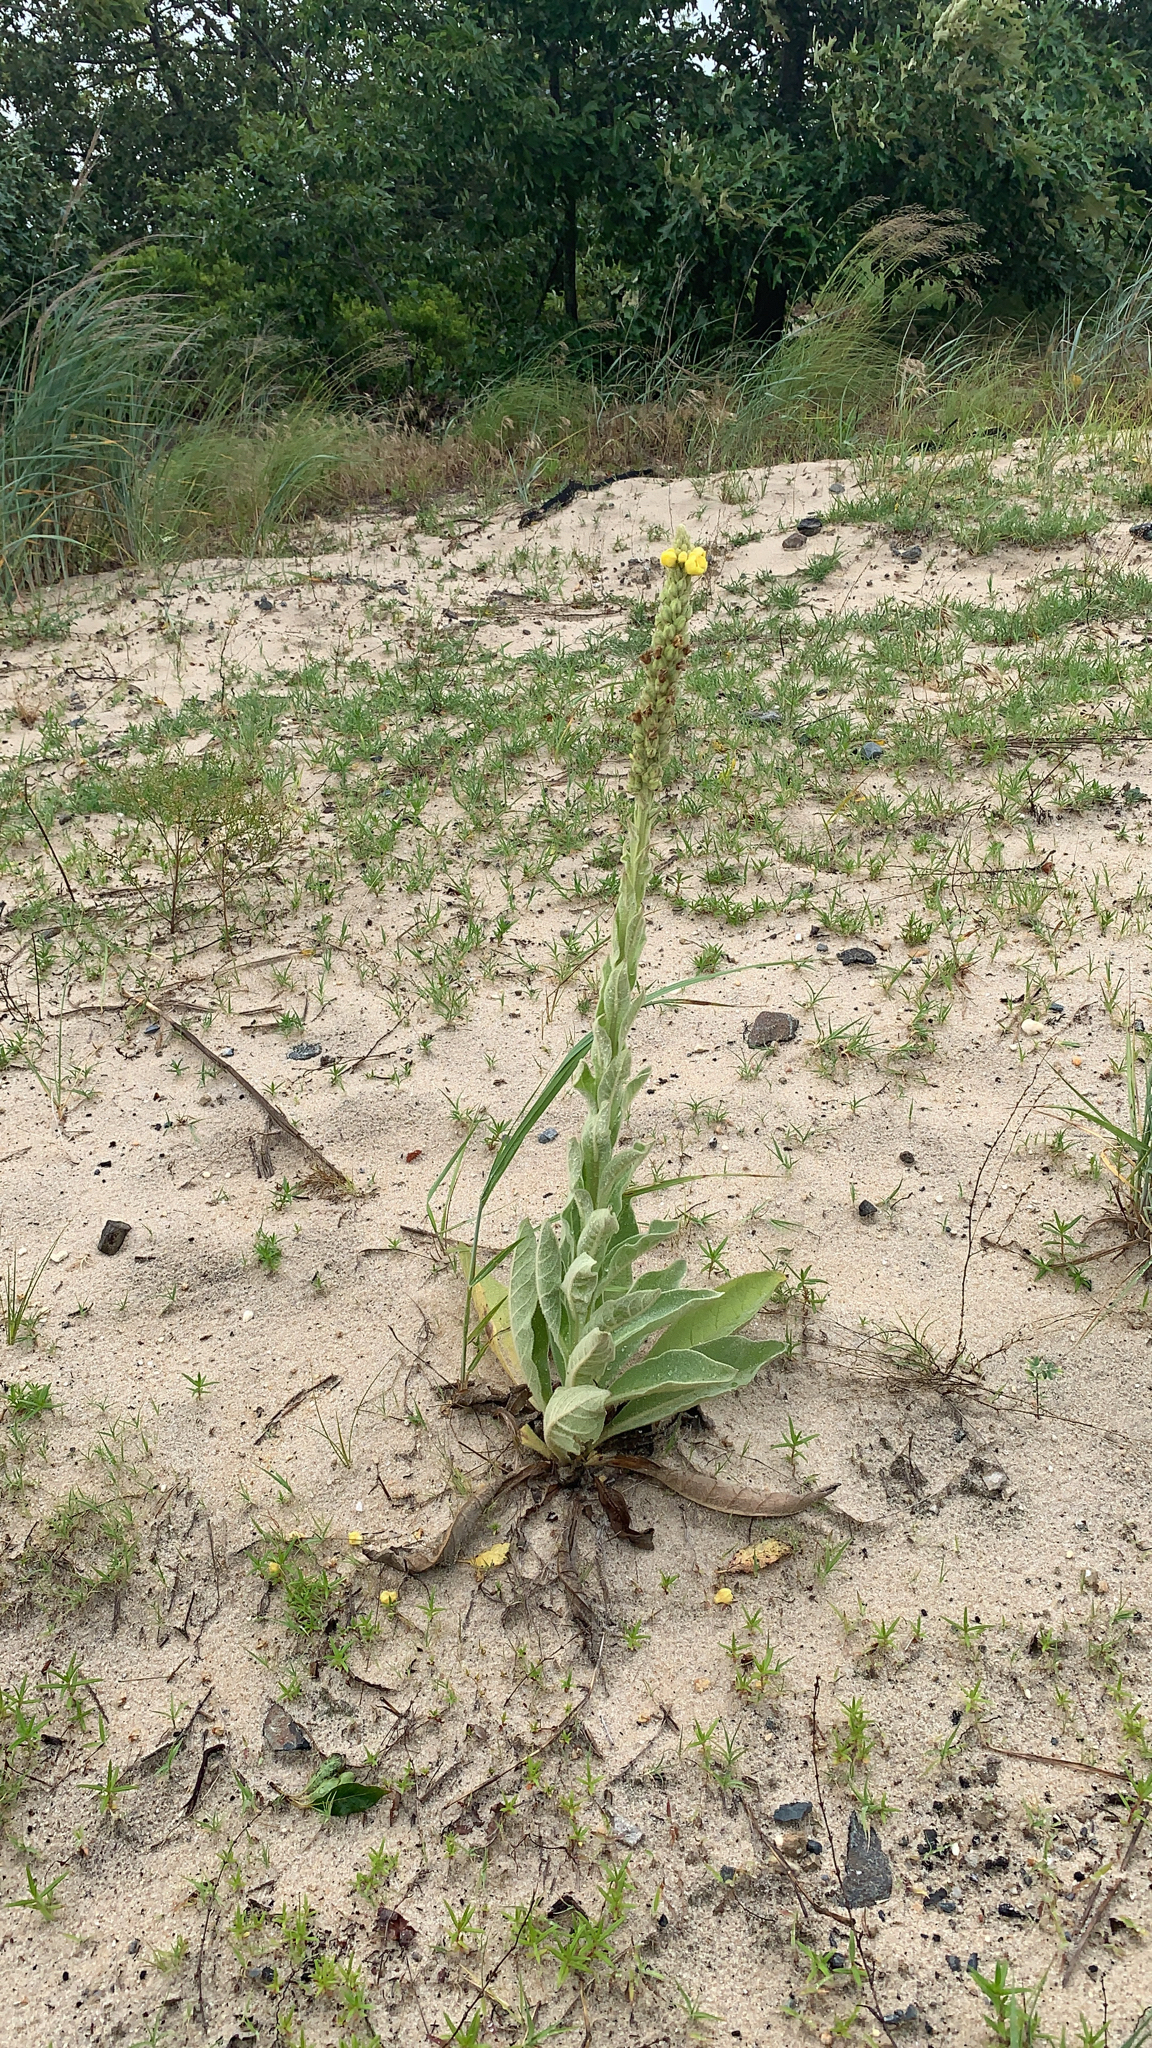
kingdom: Plantae
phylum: Tracheophyta
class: Magnoliopsida
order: Lamiales
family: Scrophulariaceae
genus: Verbascum
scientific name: Verbascum thapsus
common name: Common mullein
